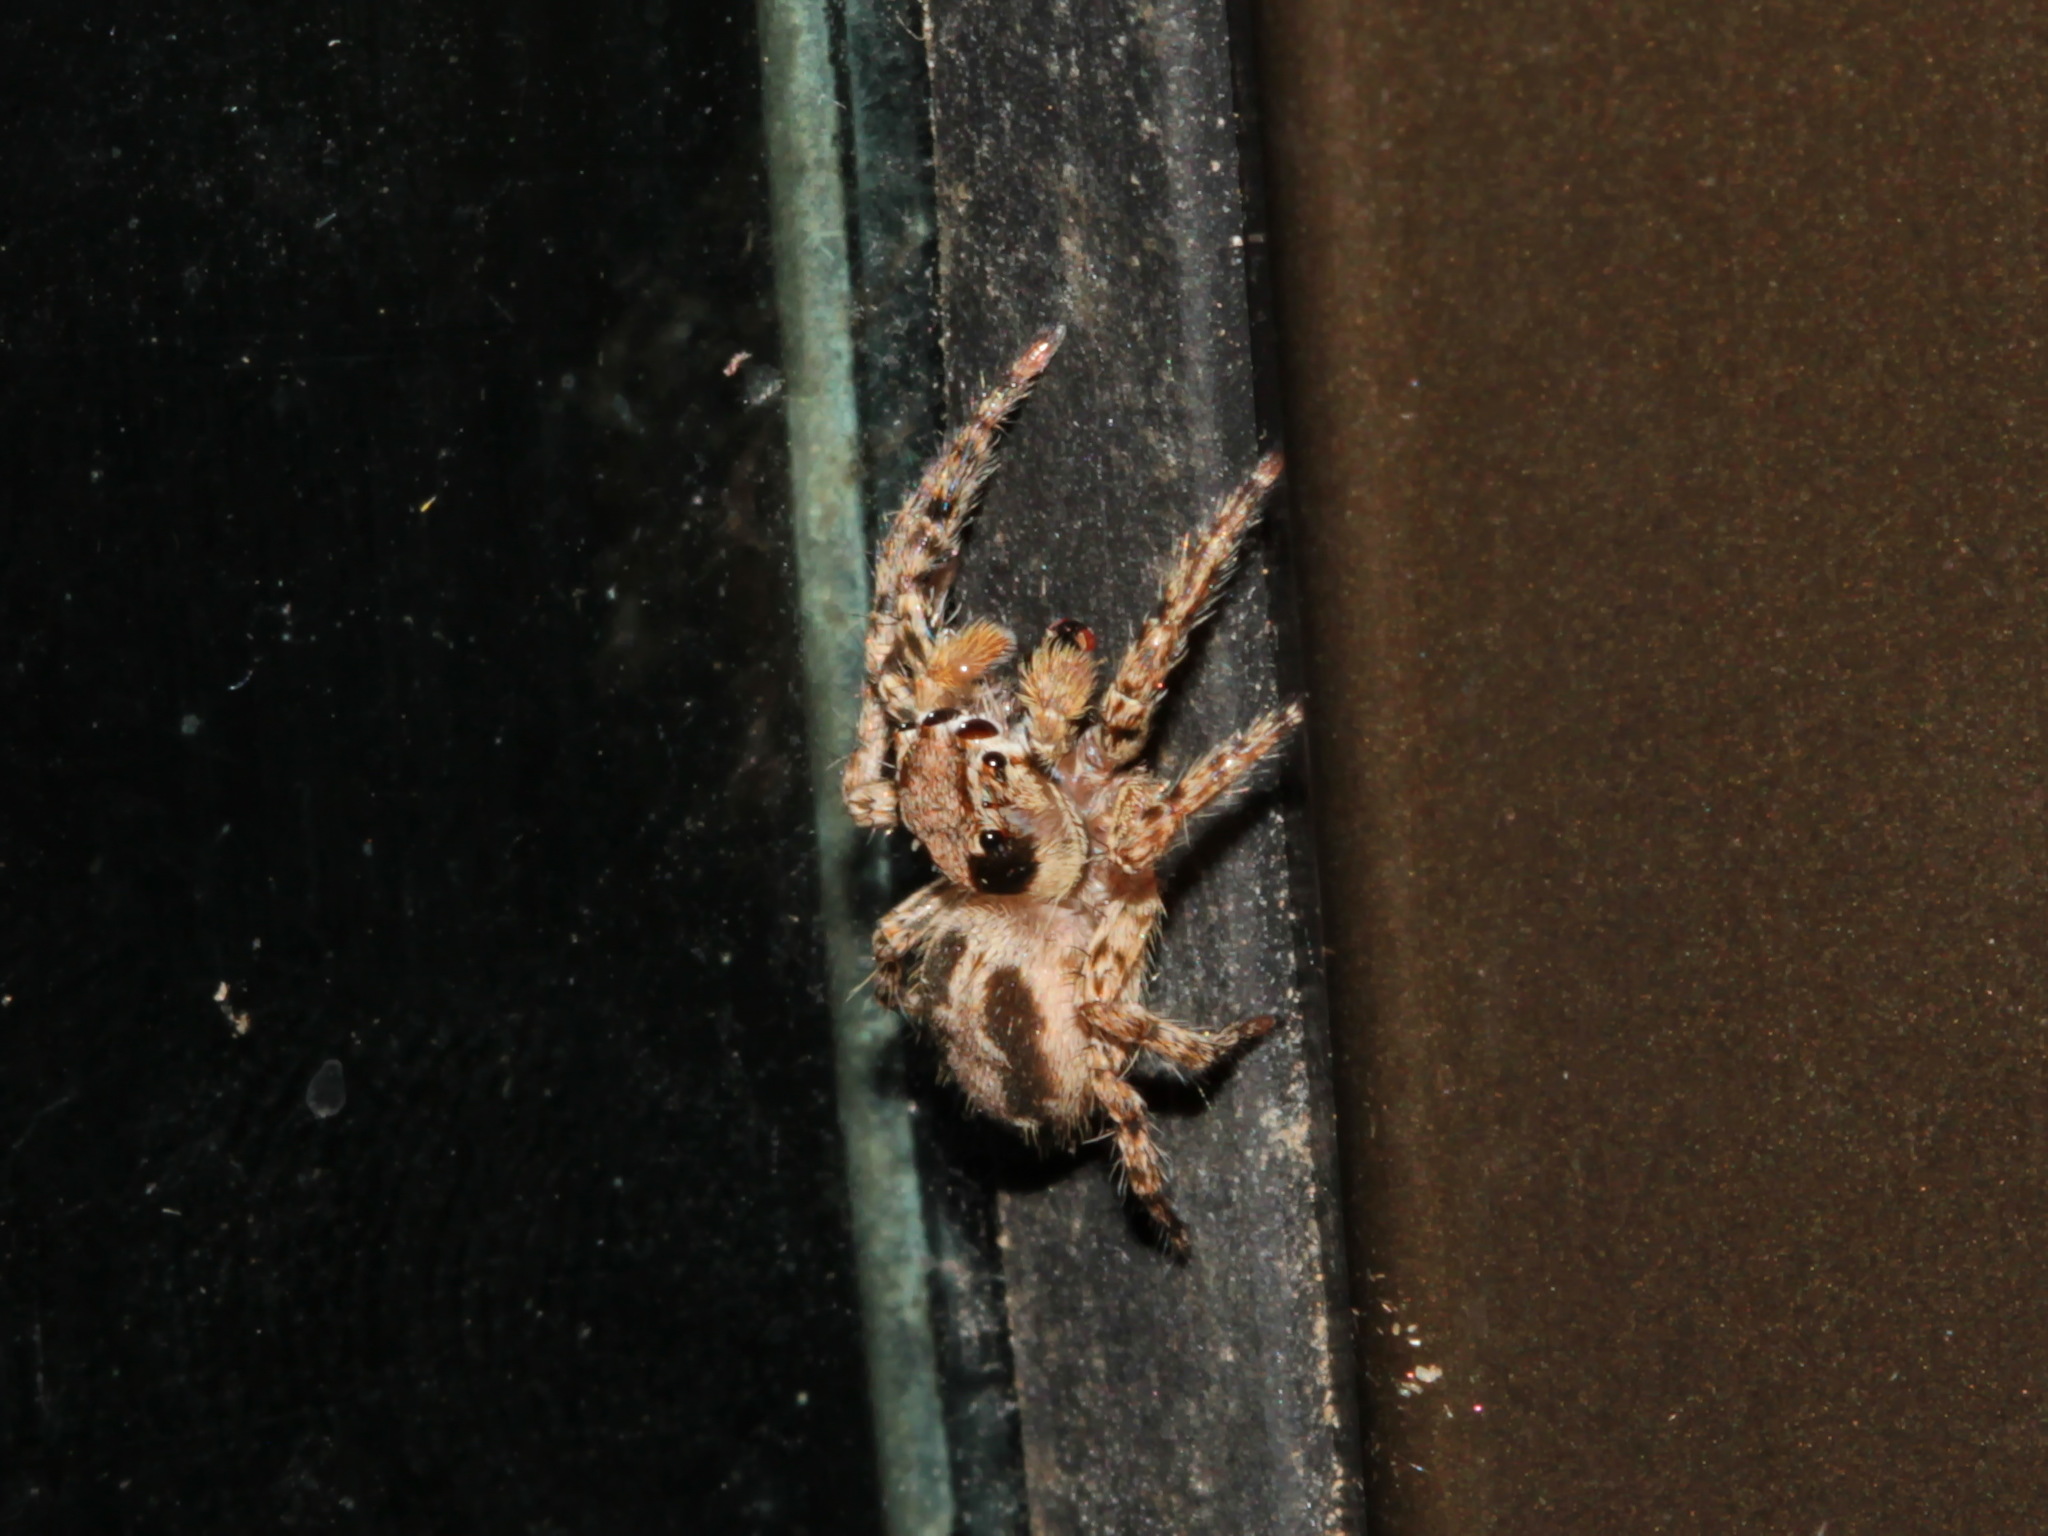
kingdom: Animalia
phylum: Arthropoda
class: Arachnida
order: Araneae
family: Salticidae
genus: Plexippus
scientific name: Plexippus petersi
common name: Jumping spider
